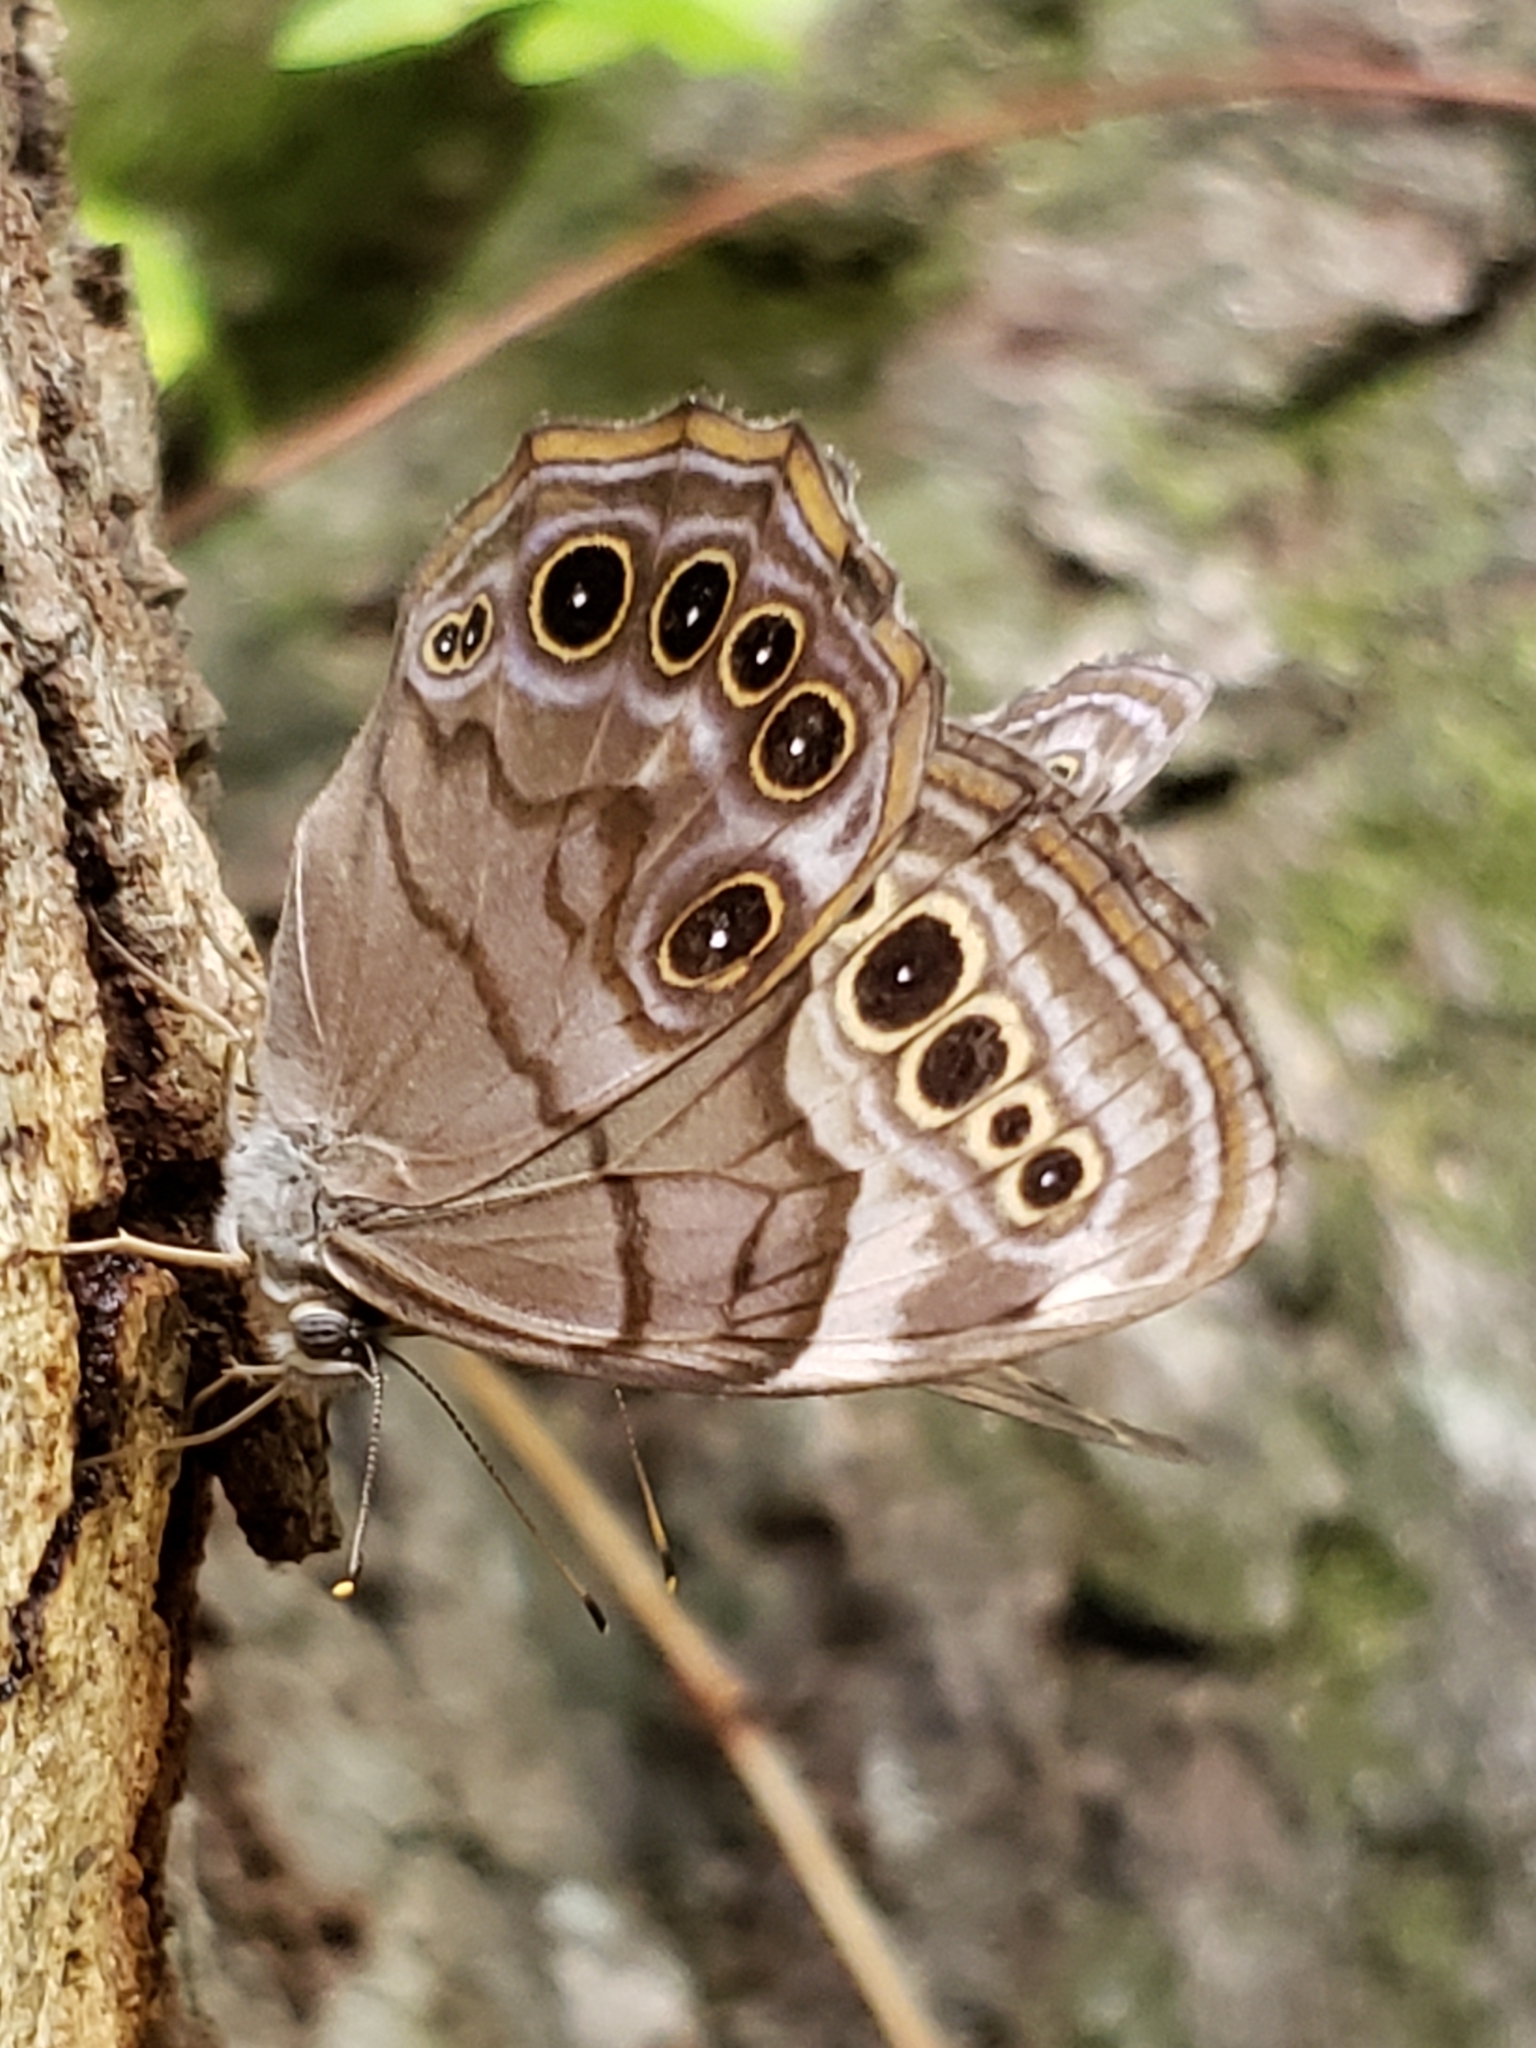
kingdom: Animalia
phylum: Arthropoda
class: Insecta
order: Lepidoptera
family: Nymphalidae
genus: Lethe
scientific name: Lethe anthedon
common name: Northern pearly-eye
